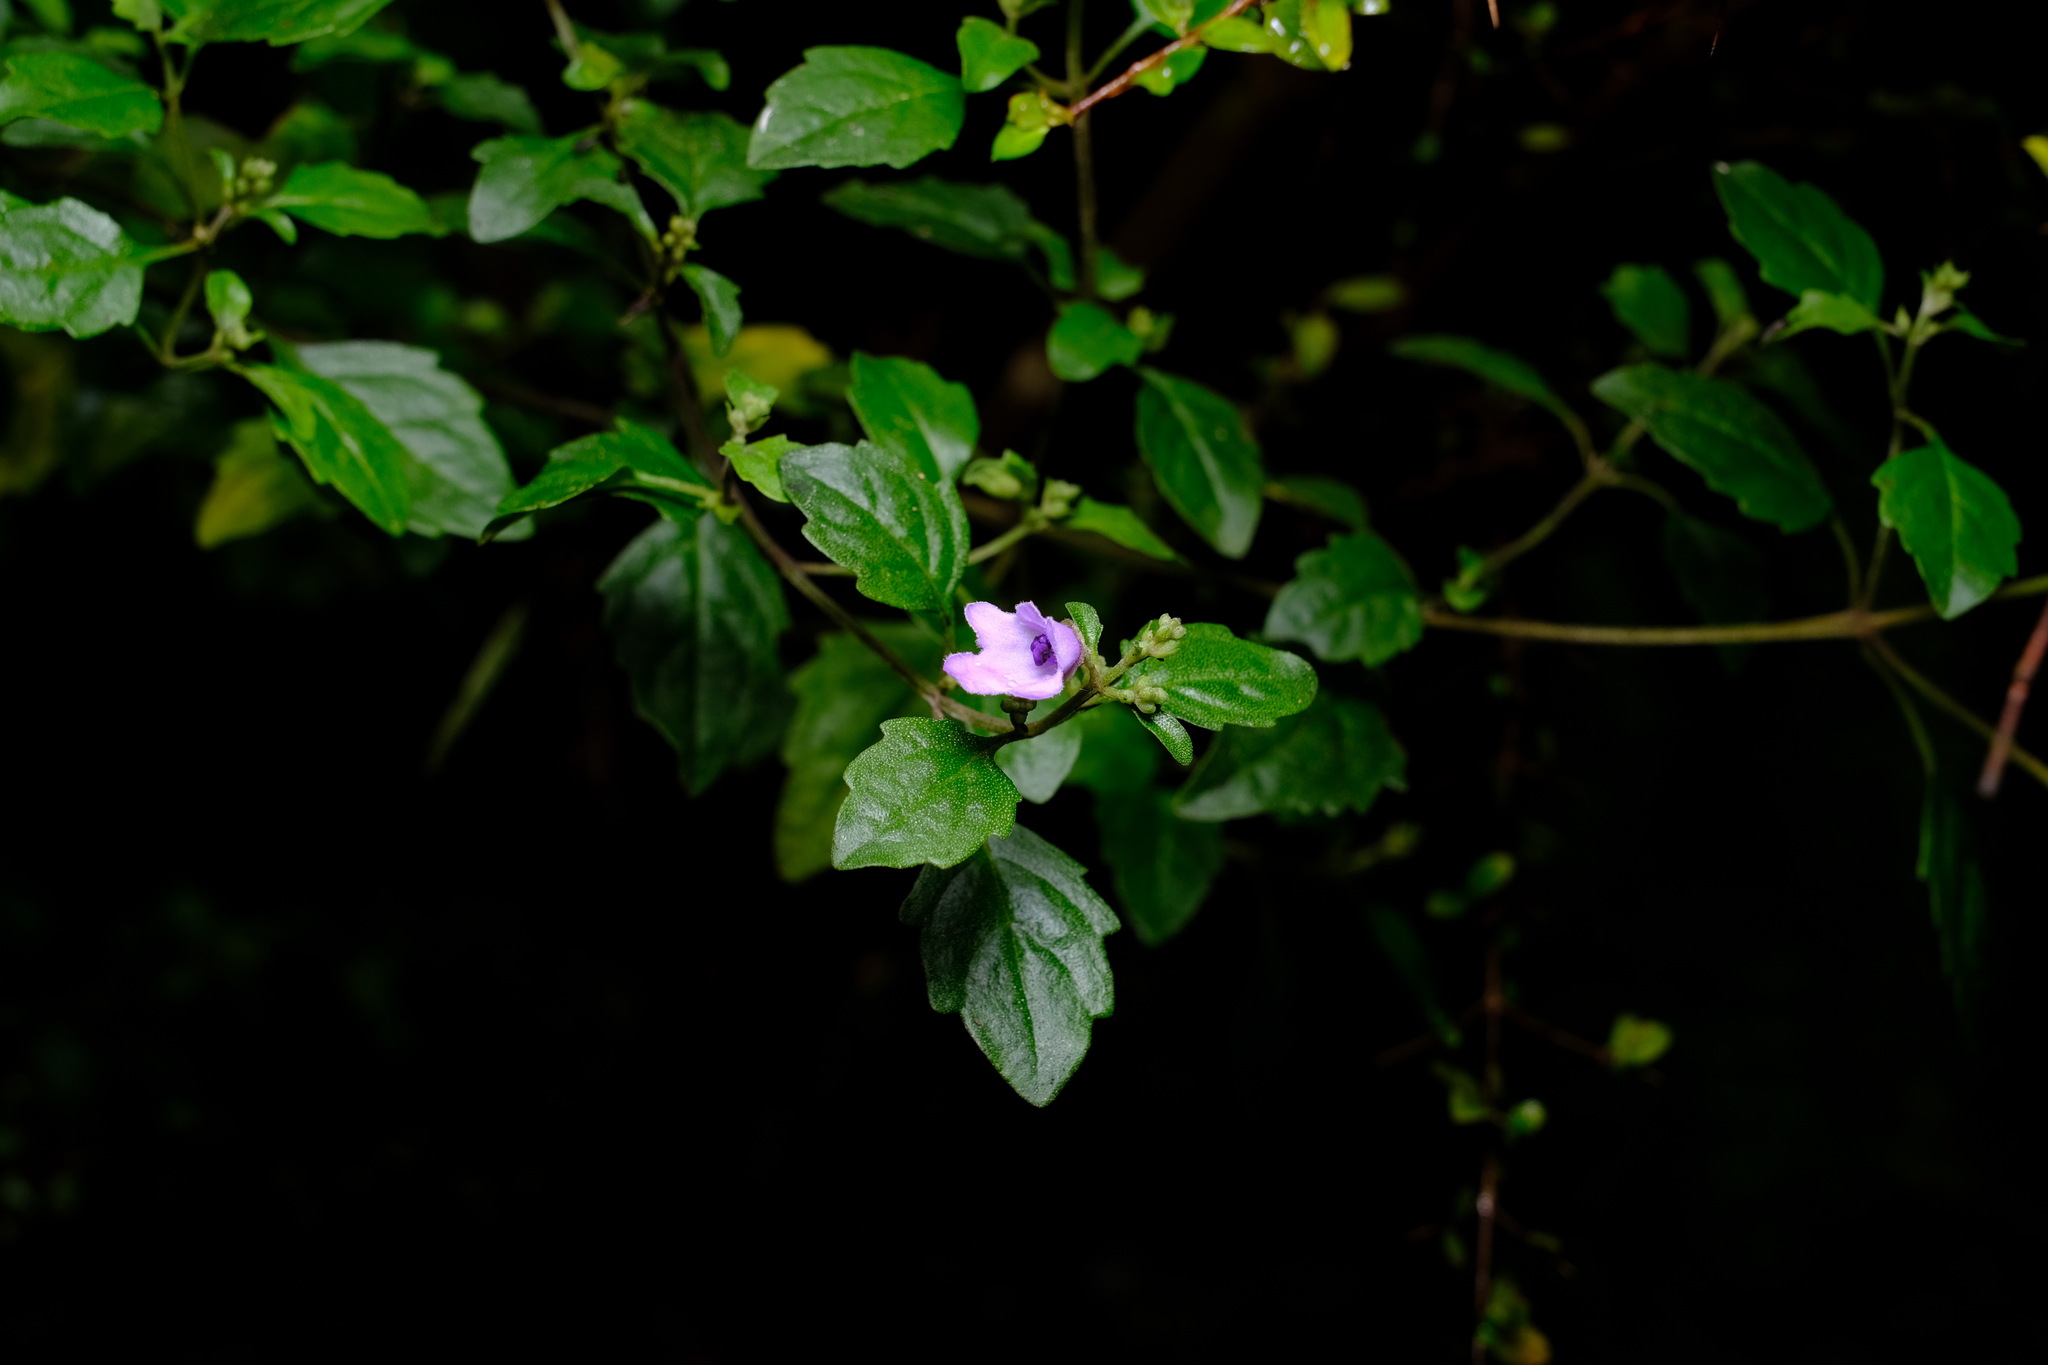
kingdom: Plantae
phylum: Tracheophyta
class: Magnoliopsida
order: Lamiales
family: Lamiaceae
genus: Prostanthera
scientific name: Prostanthera melissifolia
